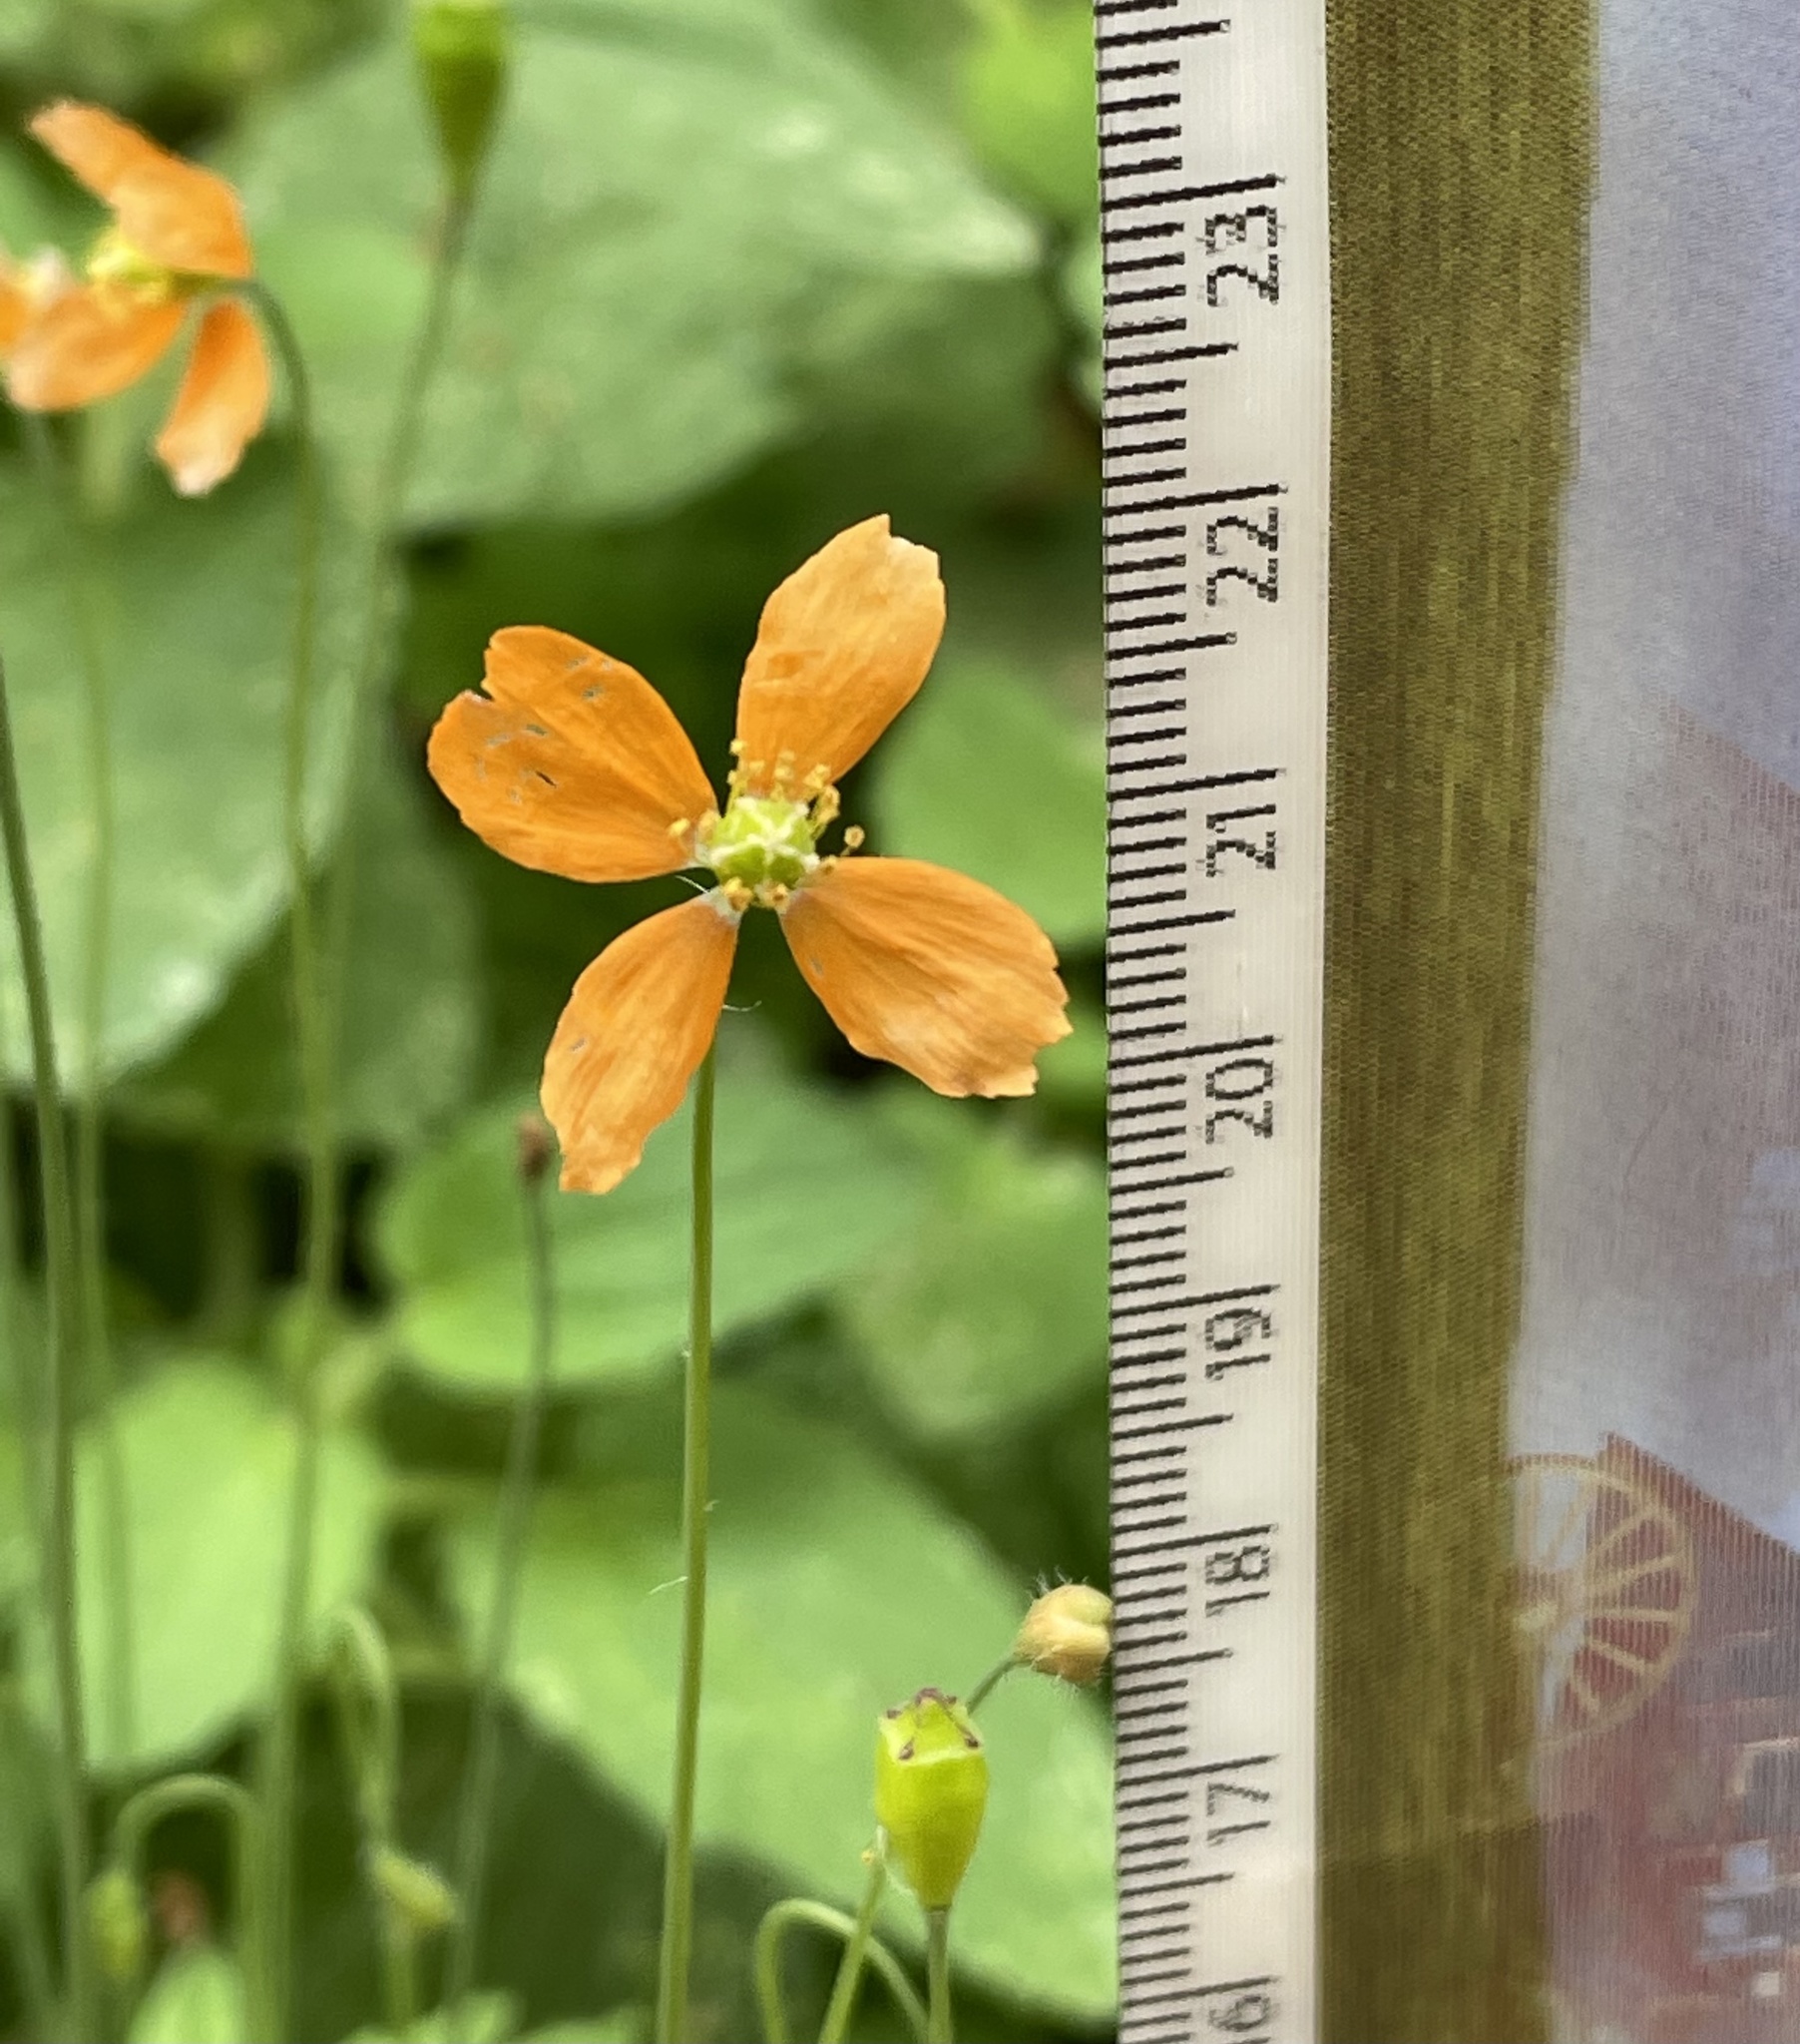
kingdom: Plantae
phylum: Tracheophyta
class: Magnoliopsida
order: Ranunculales
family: Papaveraceae
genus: Papaver
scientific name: Papaver californicum
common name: Fire poppy
